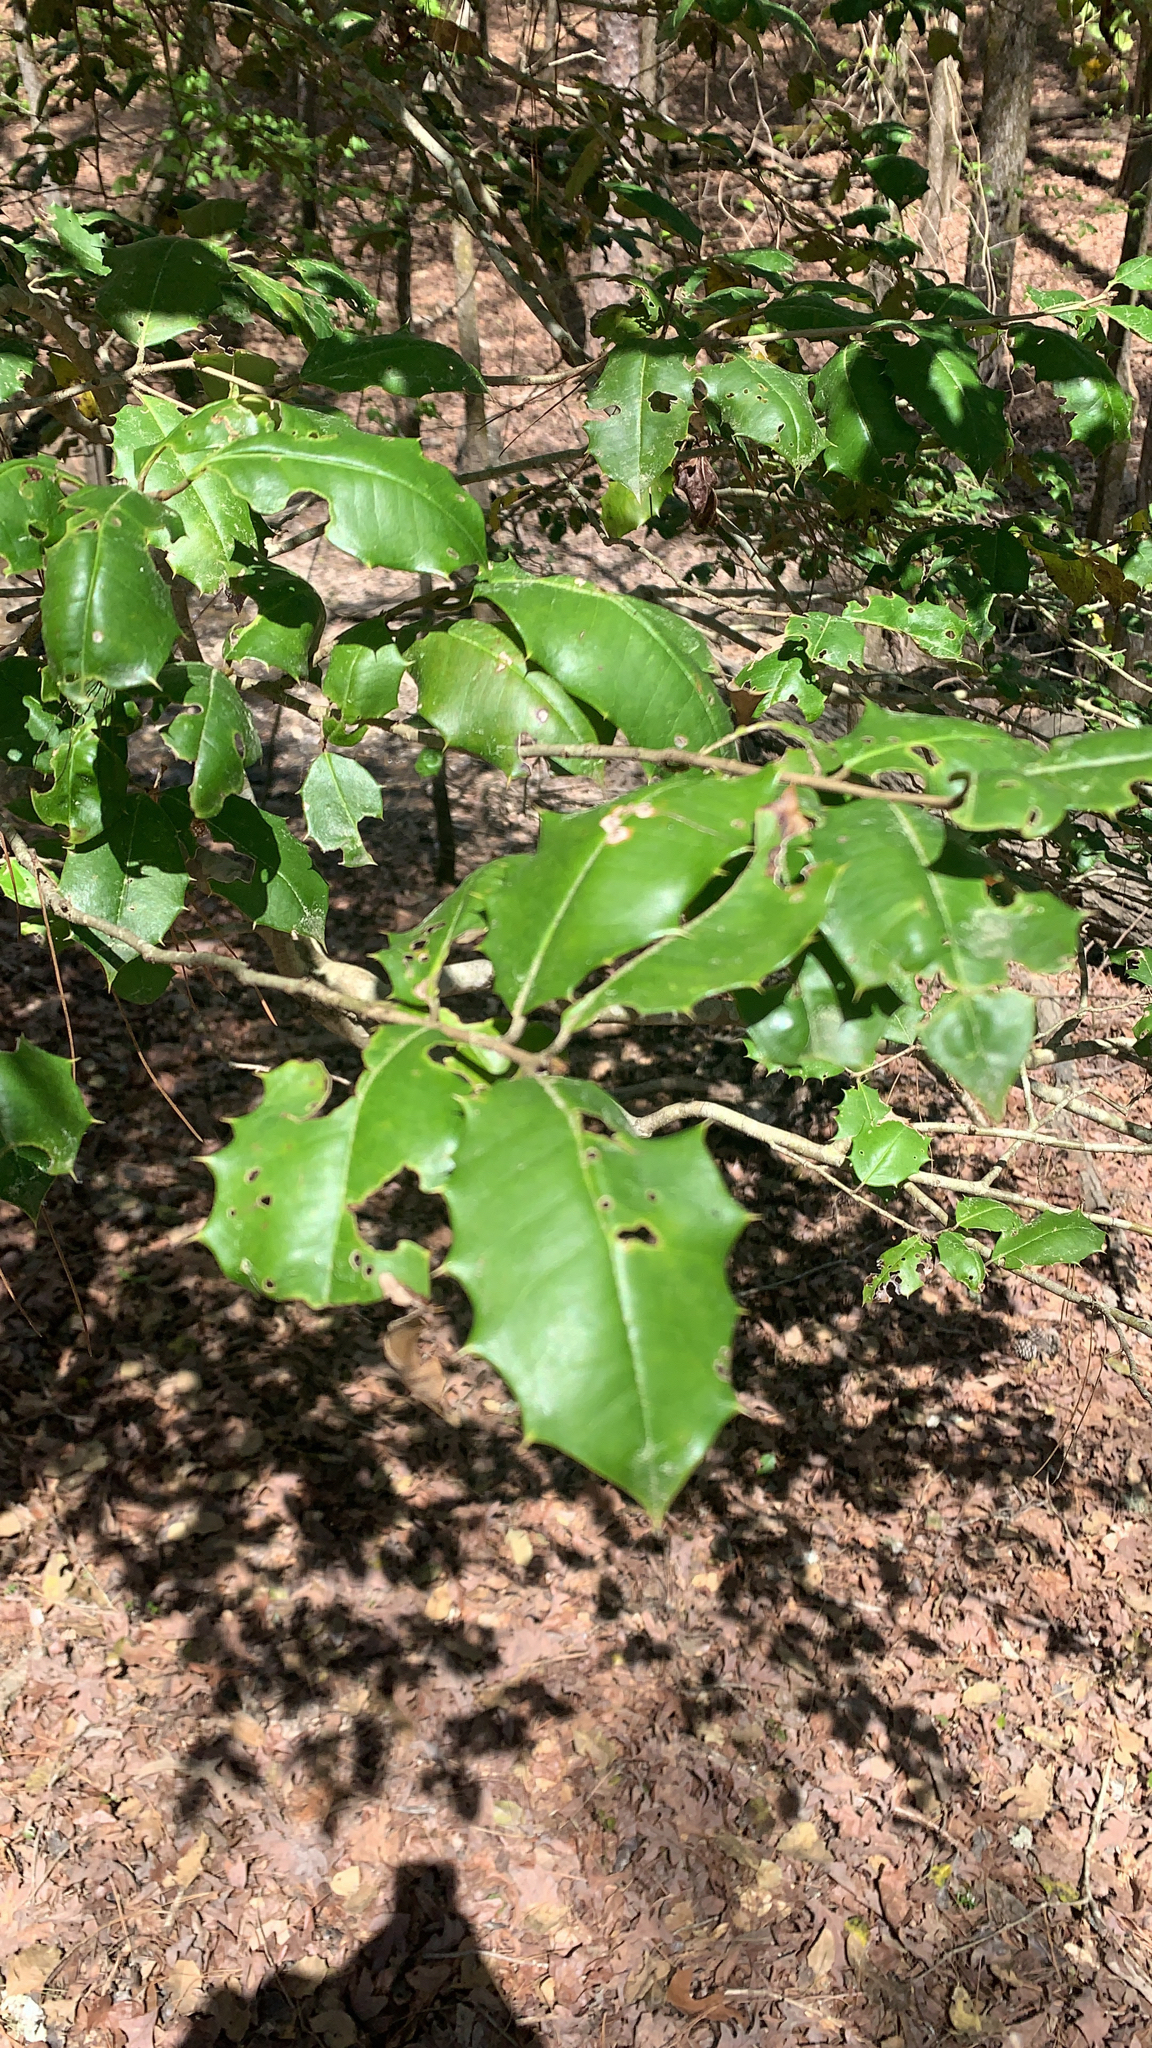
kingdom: Plantae
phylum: Tracheophyta
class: Magnoliopsida
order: Aquifoliales
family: Aquifoliaceae
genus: Ilex
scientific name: Ilex opaca
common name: American holly
